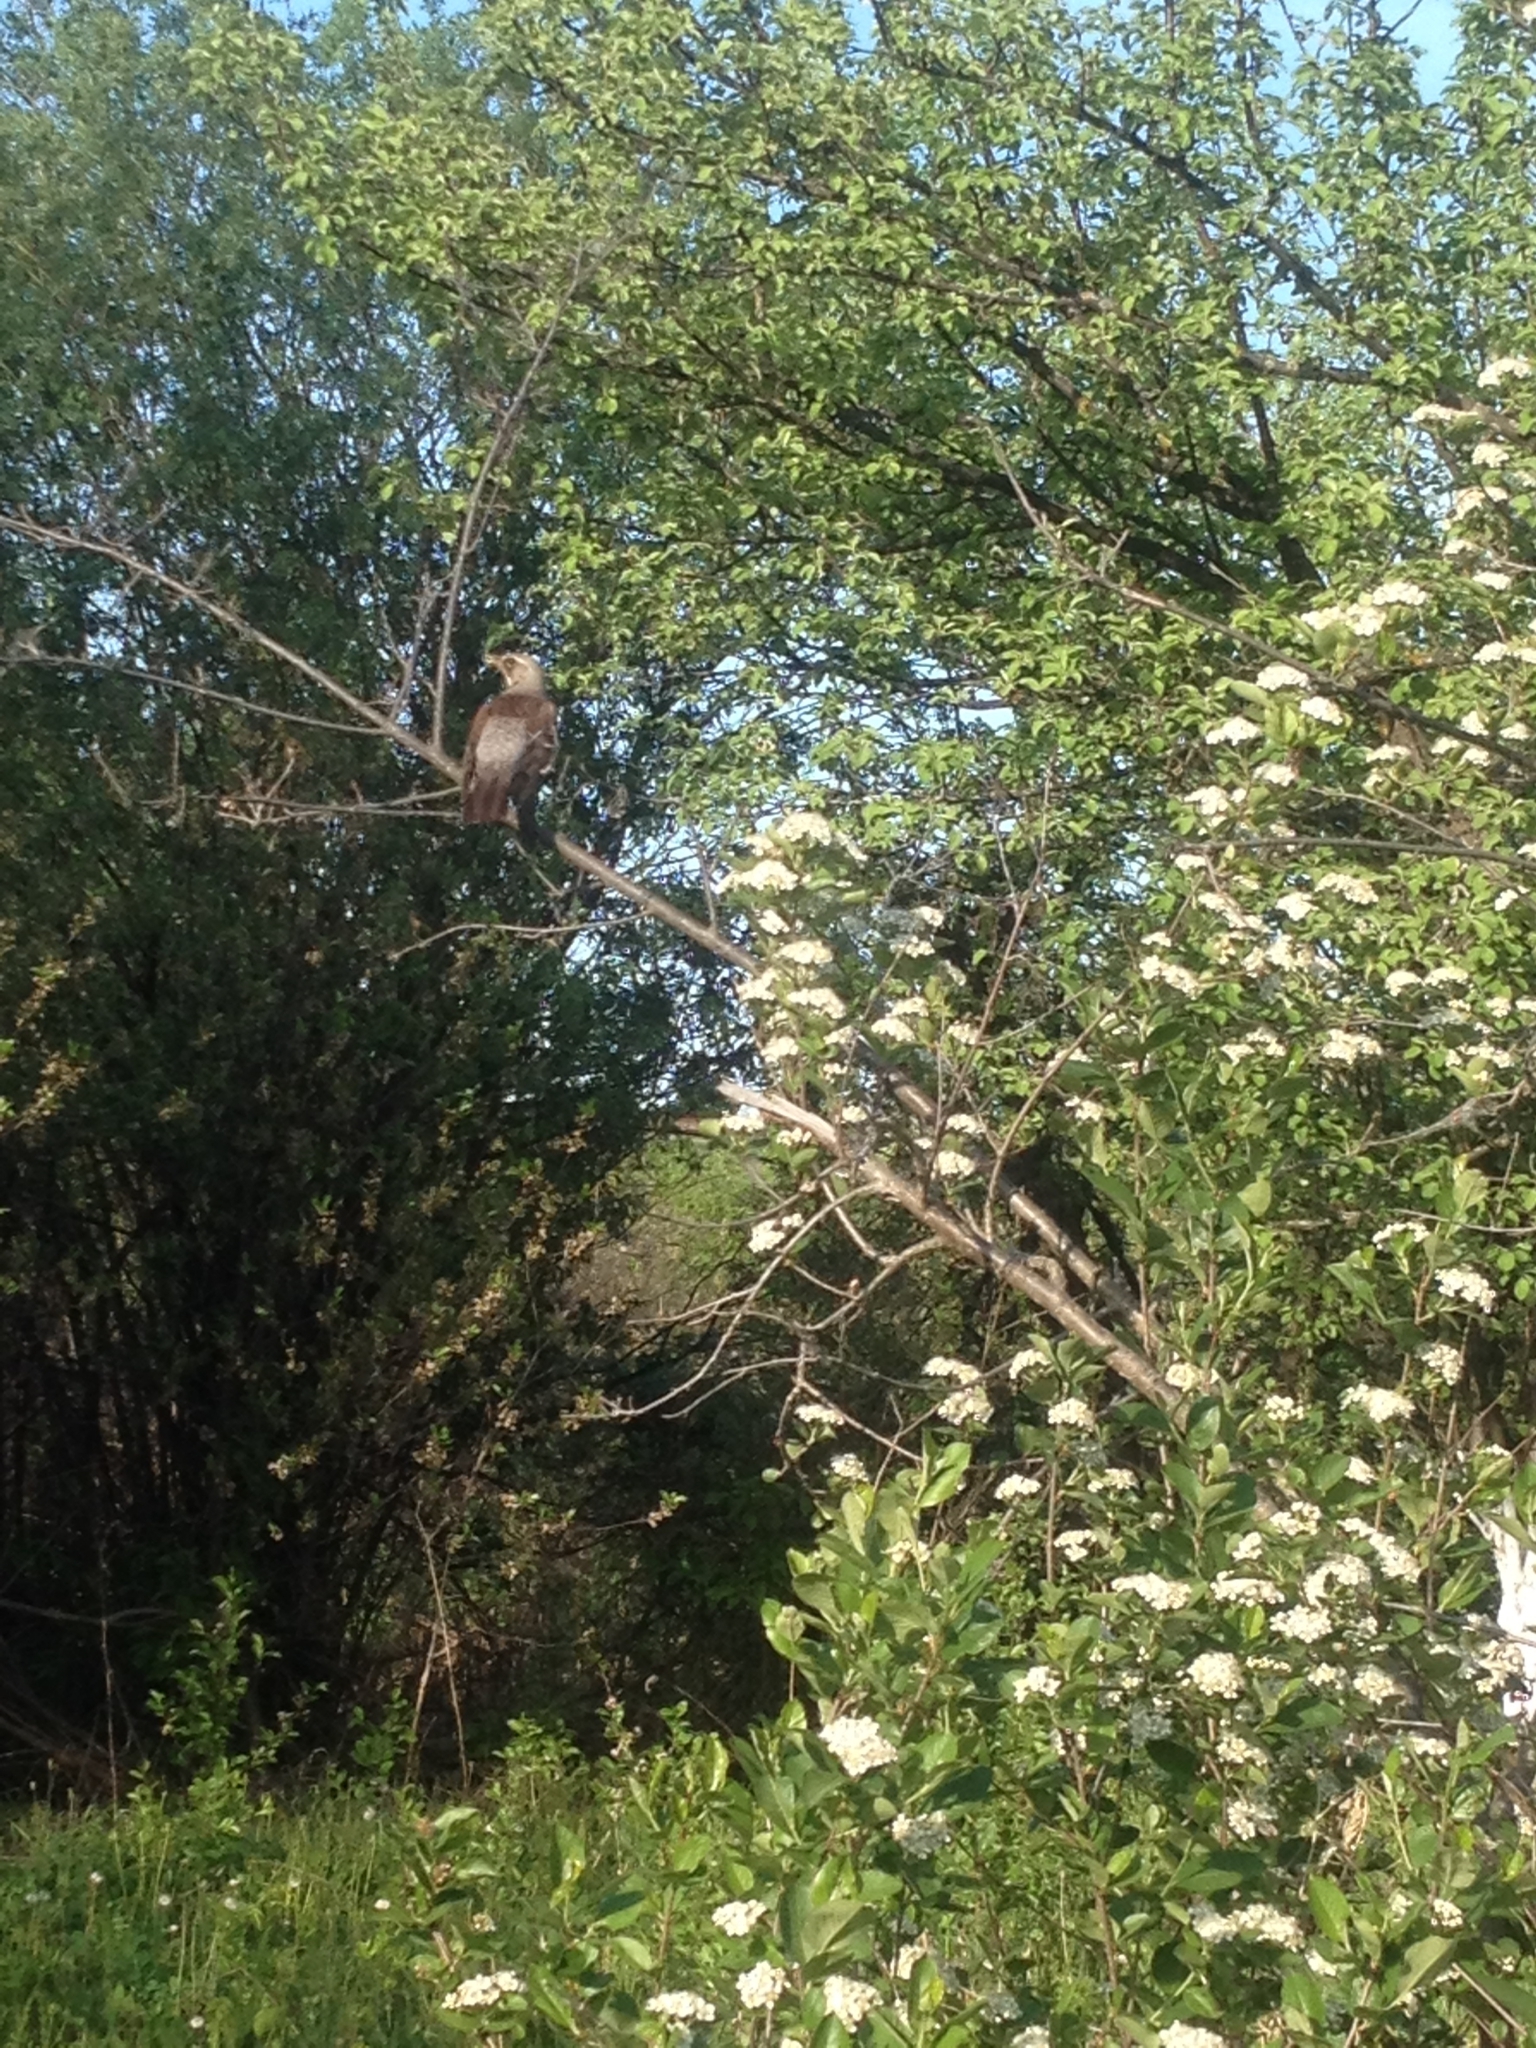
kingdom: Animalia
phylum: Chordata
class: Aves
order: Passeriformes
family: Turdidae
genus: Turdus
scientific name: Turdus pilaris
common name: Fieldfare
